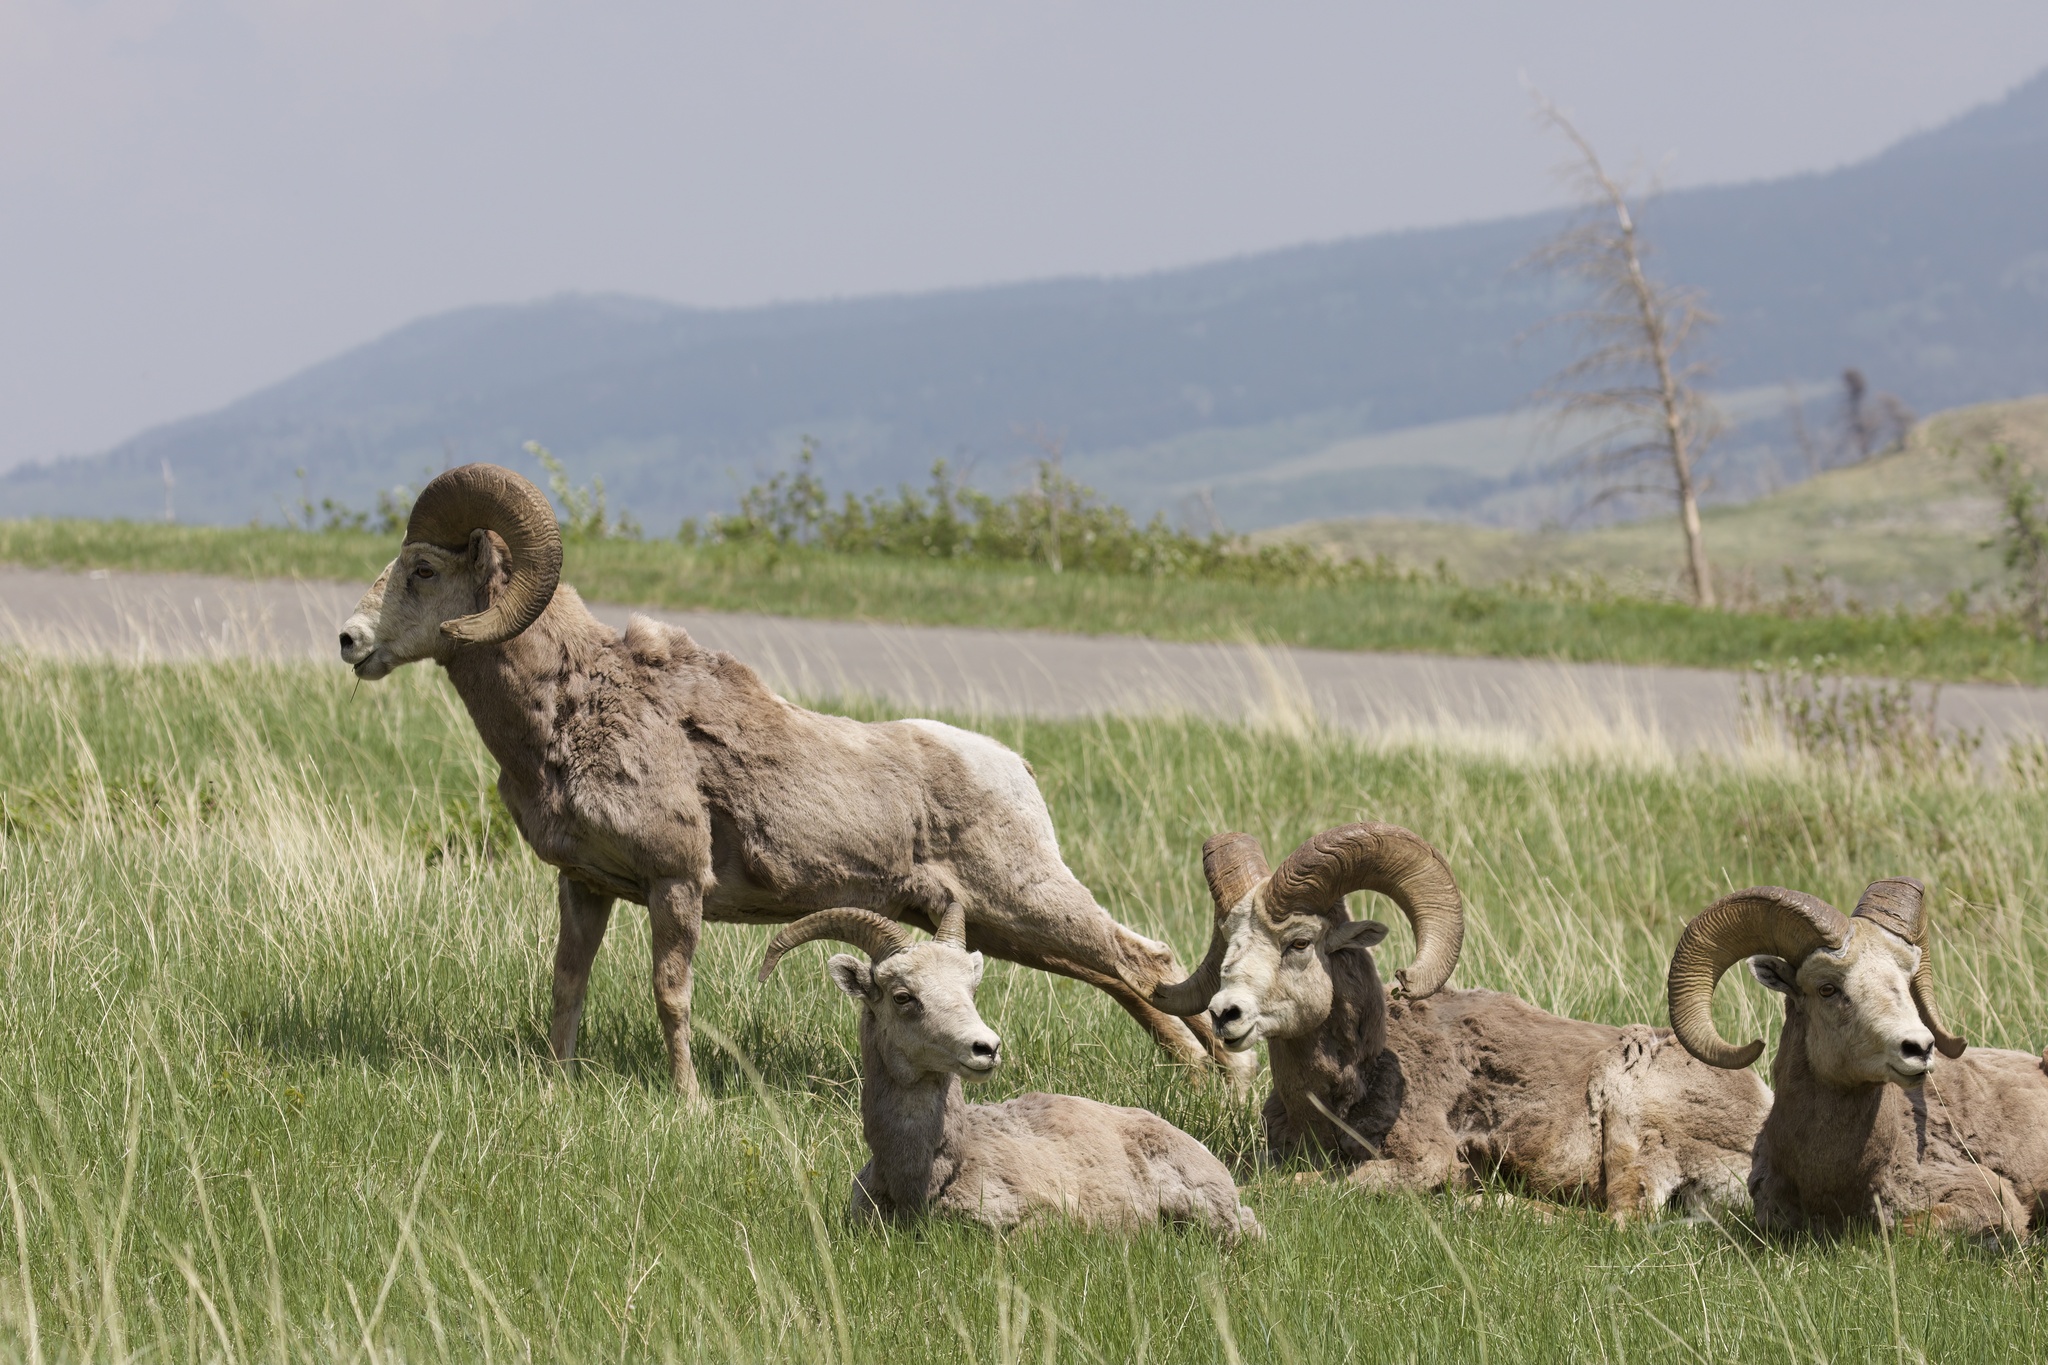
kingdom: Animalia
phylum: Chordata
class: Mammalia
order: Artiodactyla
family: Bovidae
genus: Ovis
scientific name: Ovis canadensis
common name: Bighorn sheep
